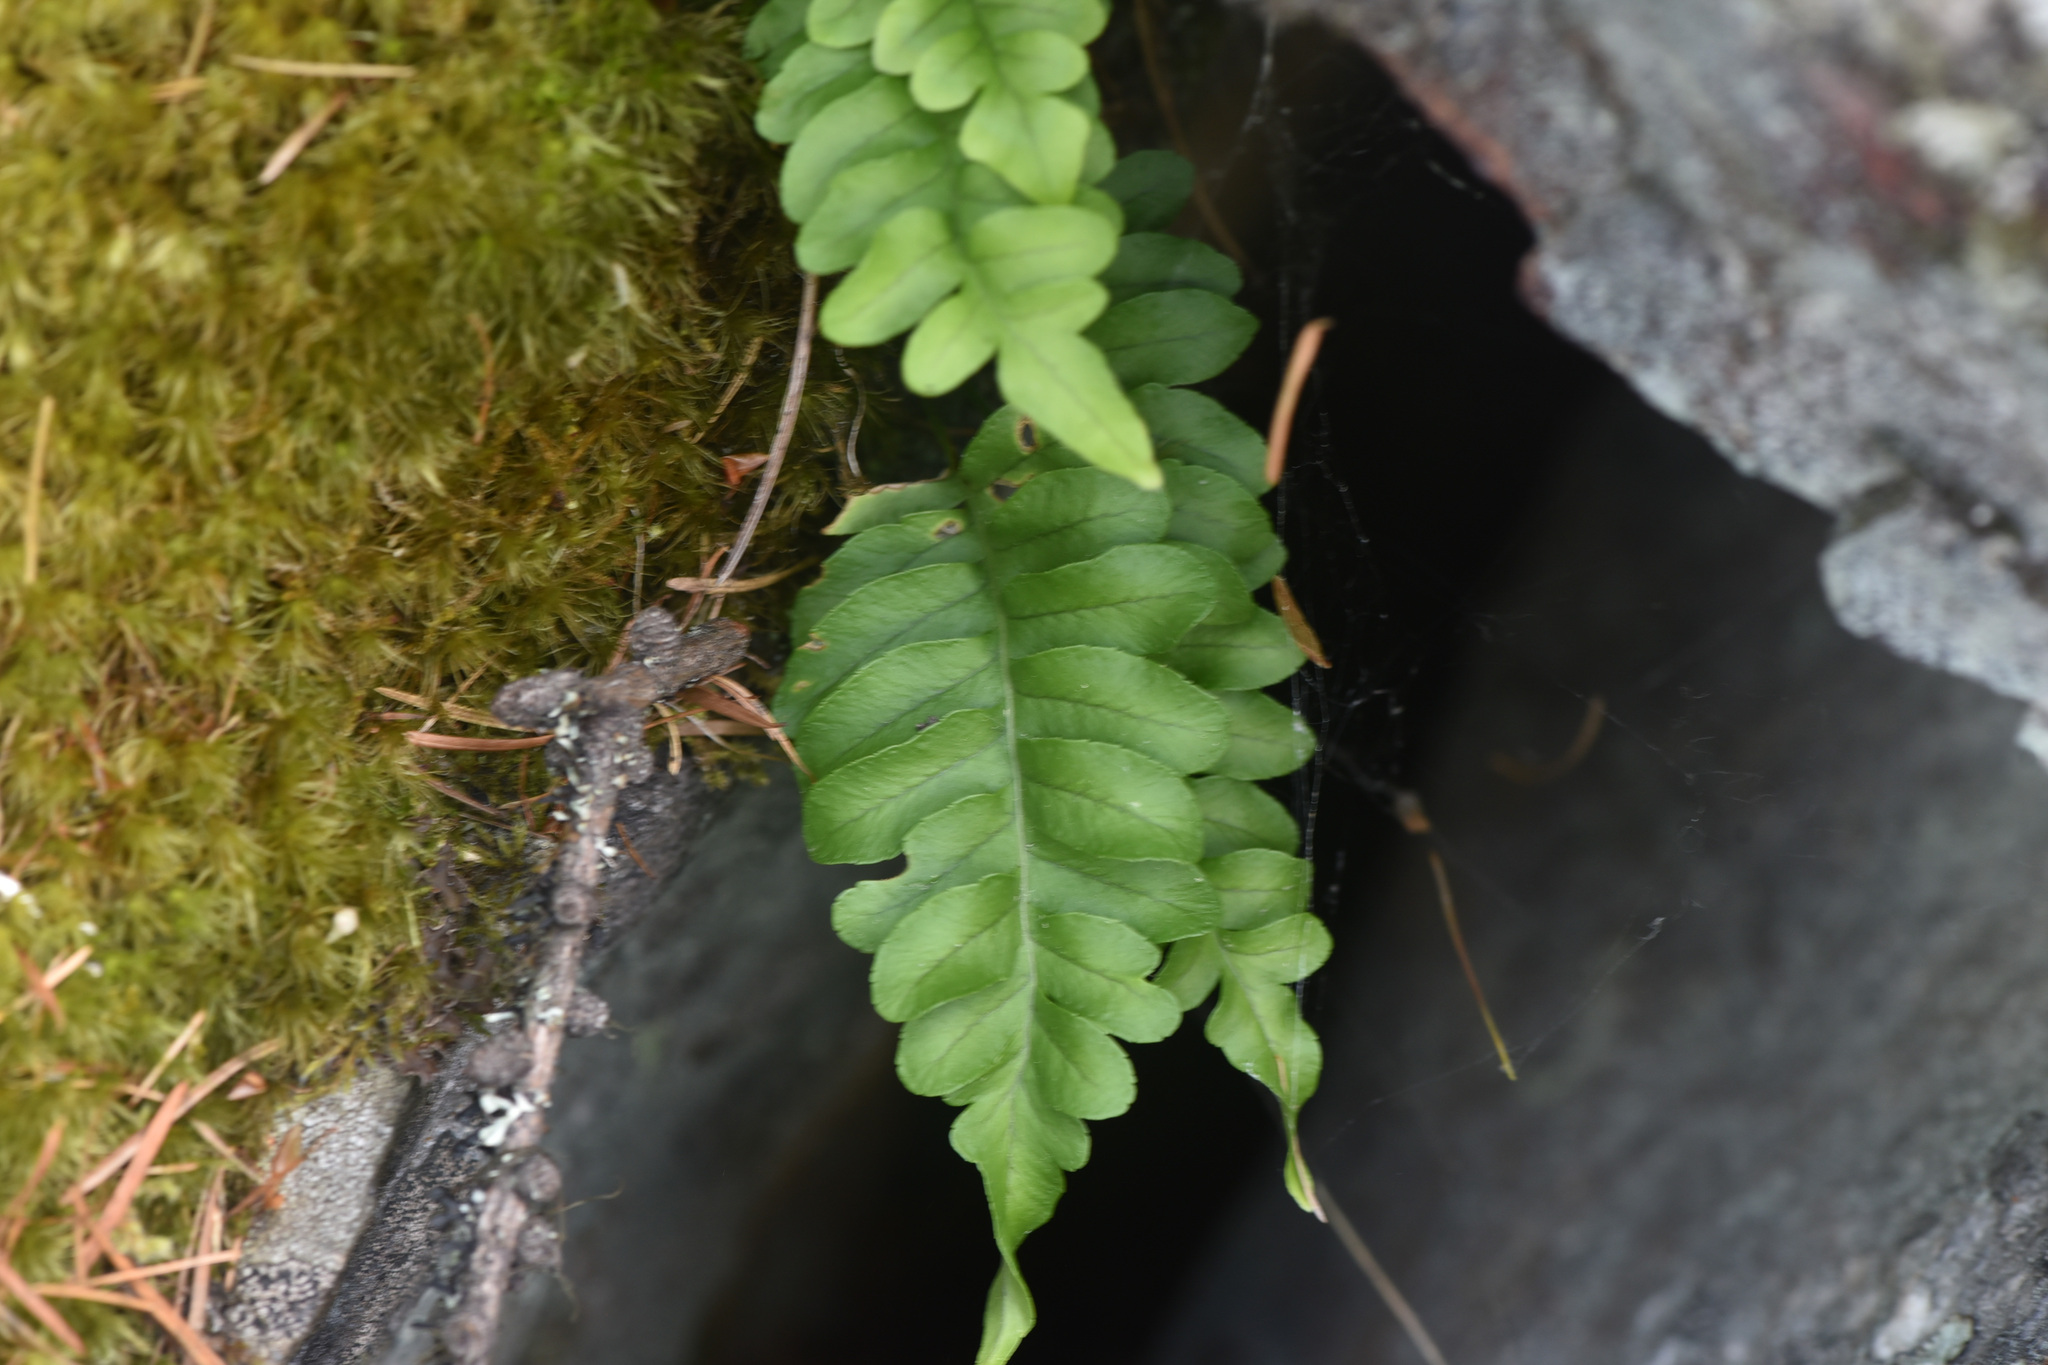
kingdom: Plantae
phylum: Tracheophyta
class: Polypodiopsida
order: Polypodiales
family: Polypodiaceae
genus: Polypodium
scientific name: Polypodium hesperium
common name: Western polypody
